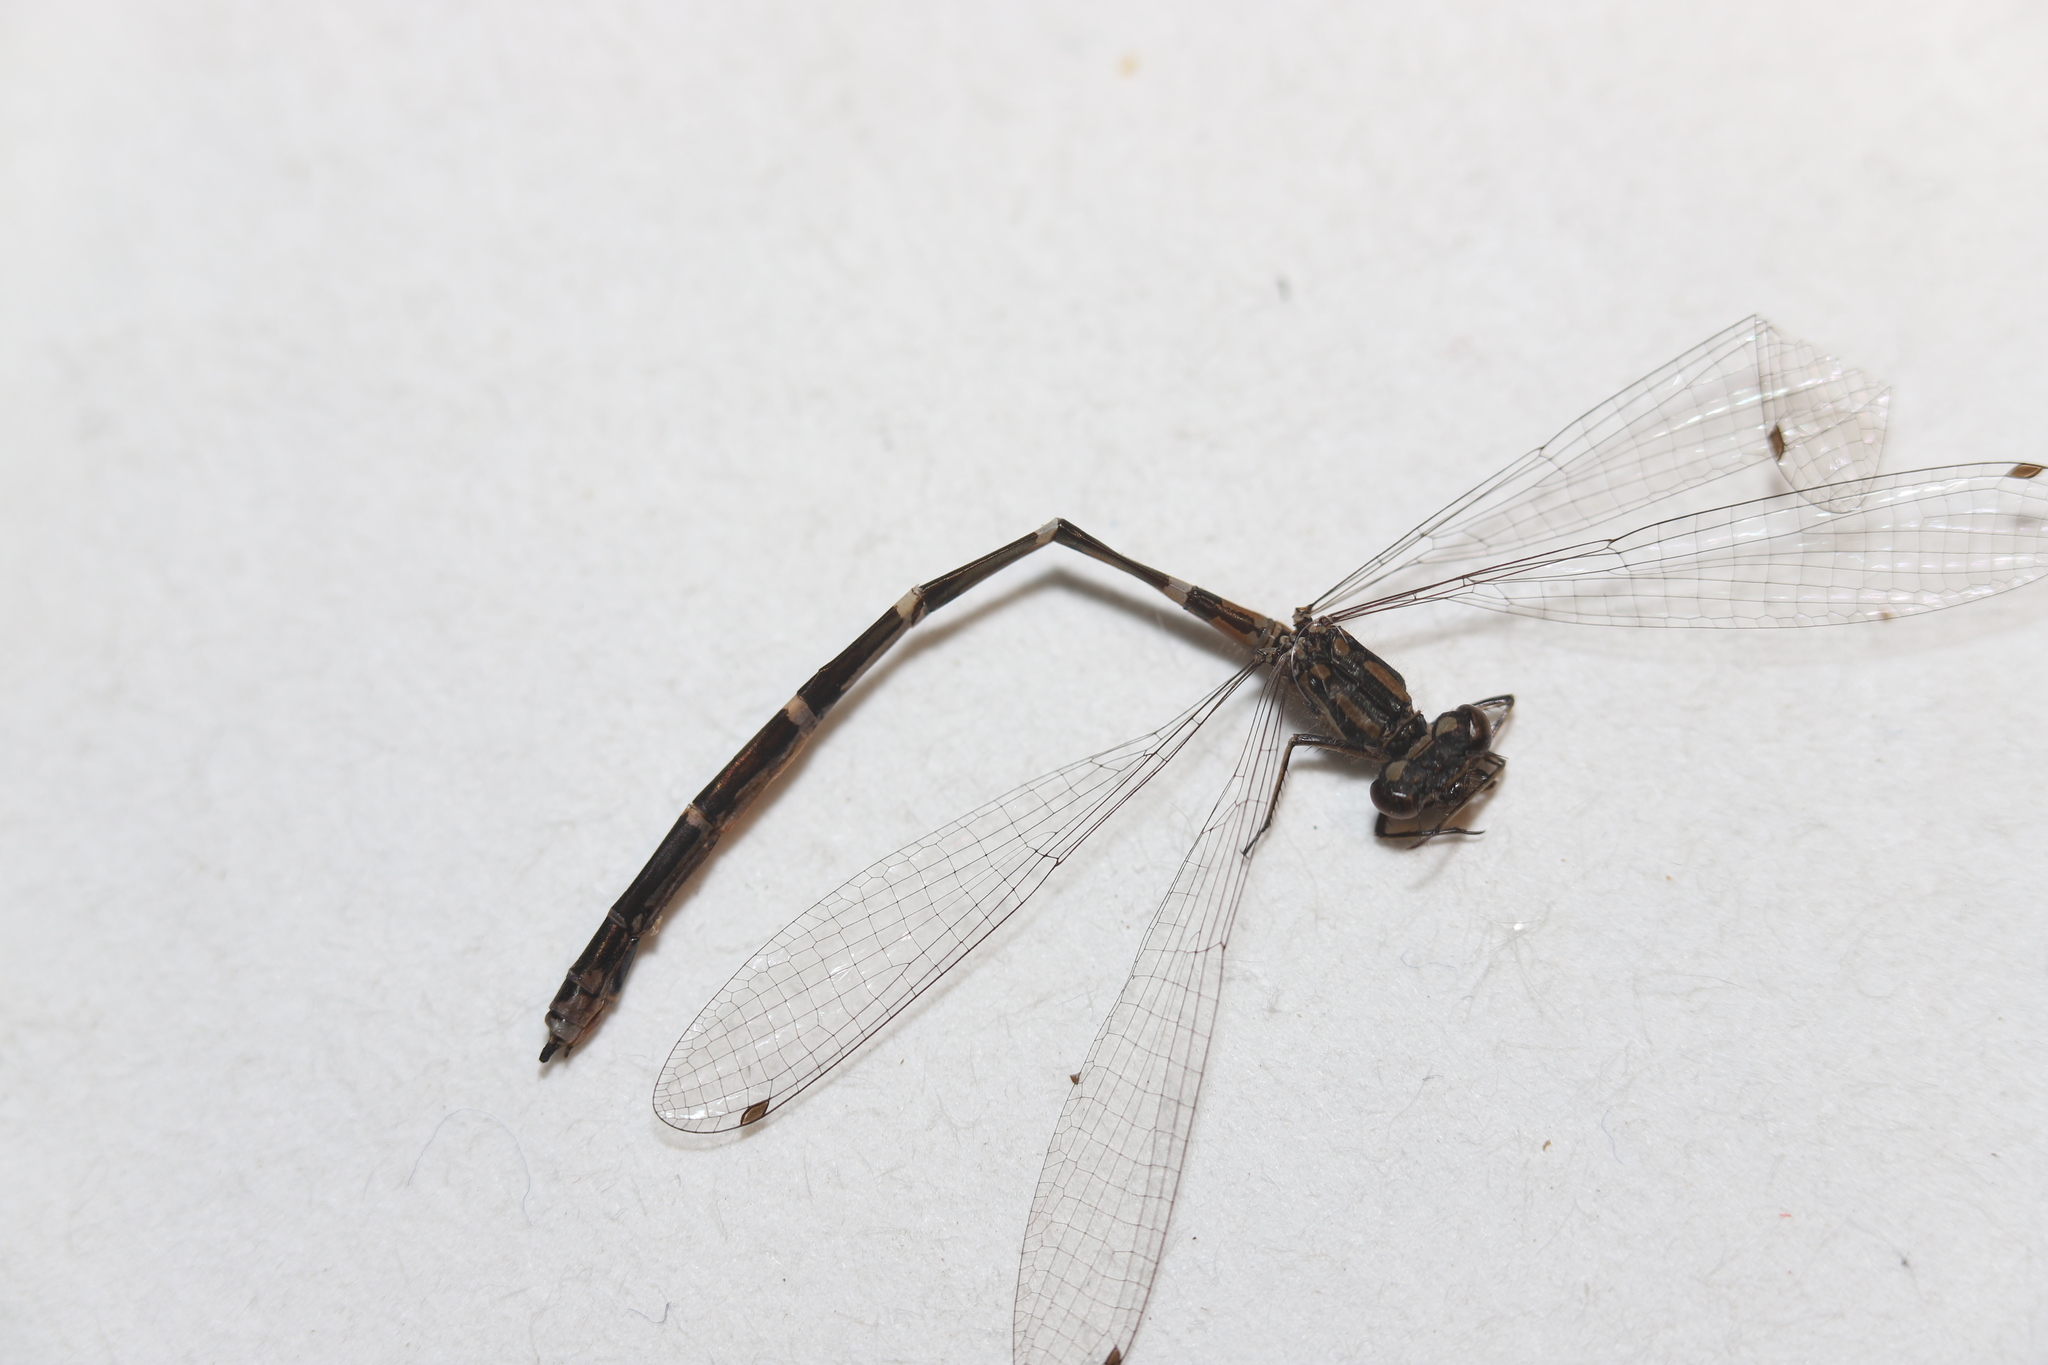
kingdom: Animalia
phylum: Arthropoda
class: Insecta
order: Odonata
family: Coenagrionidae
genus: Coenagrion
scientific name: Coenagrion interrogatum
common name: Subarctic bluet
